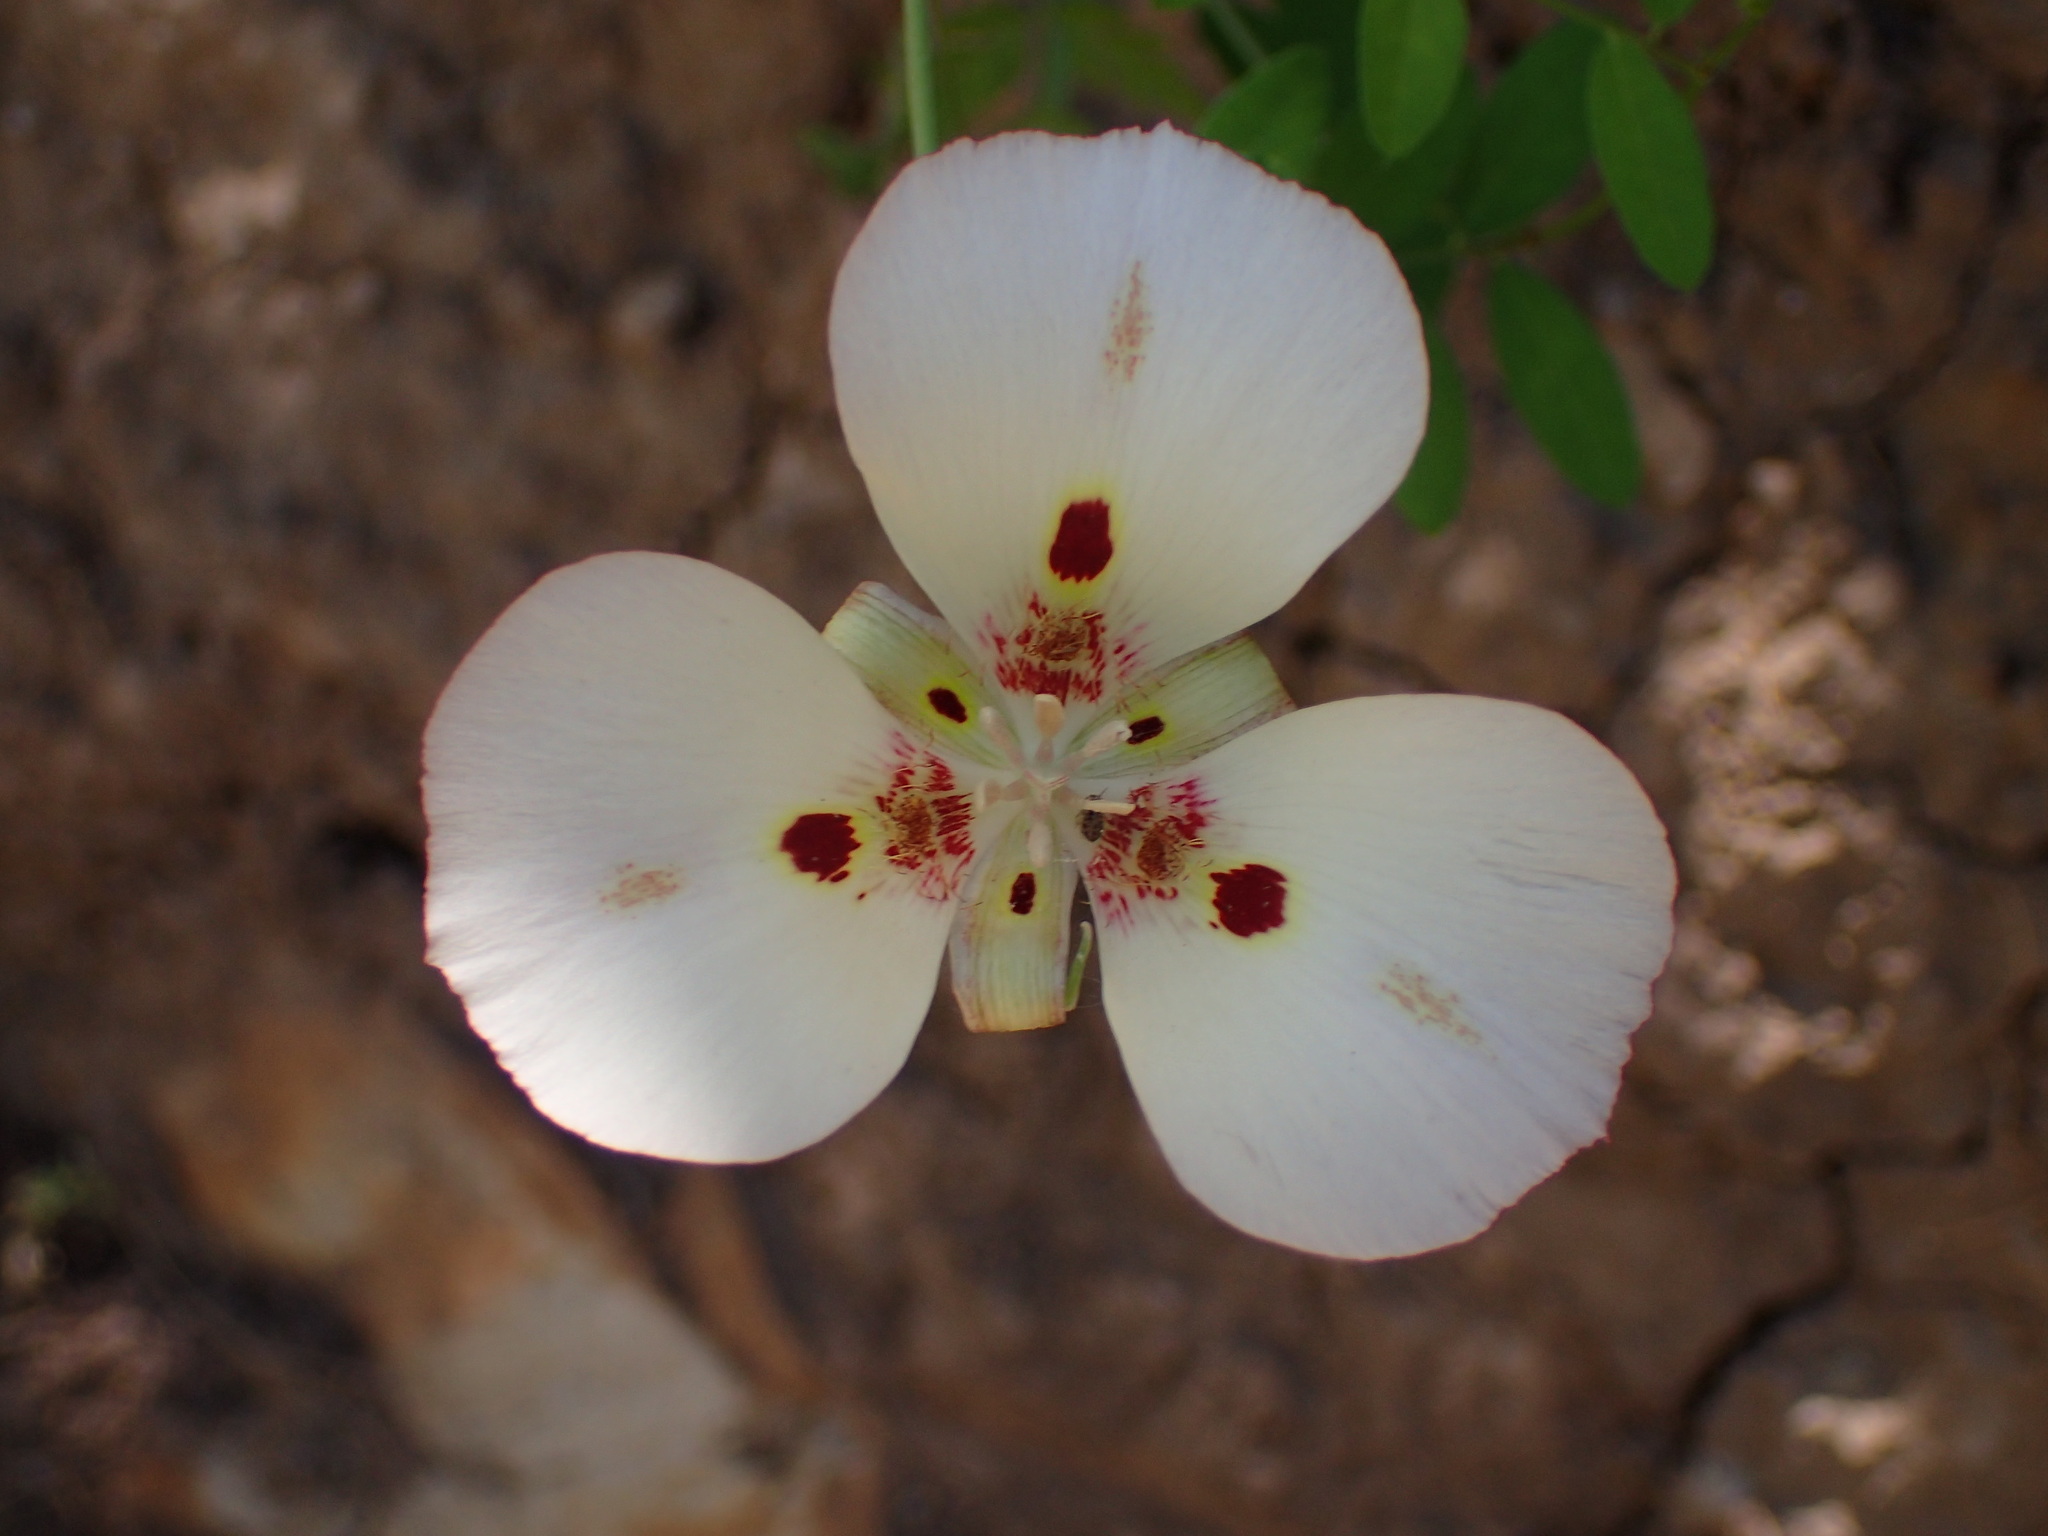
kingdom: Plantae
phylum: Tracheophyta
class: Liliopsida
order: Liliales
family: Liliaceae
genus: Calochortus
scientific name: Calochortus venustus
